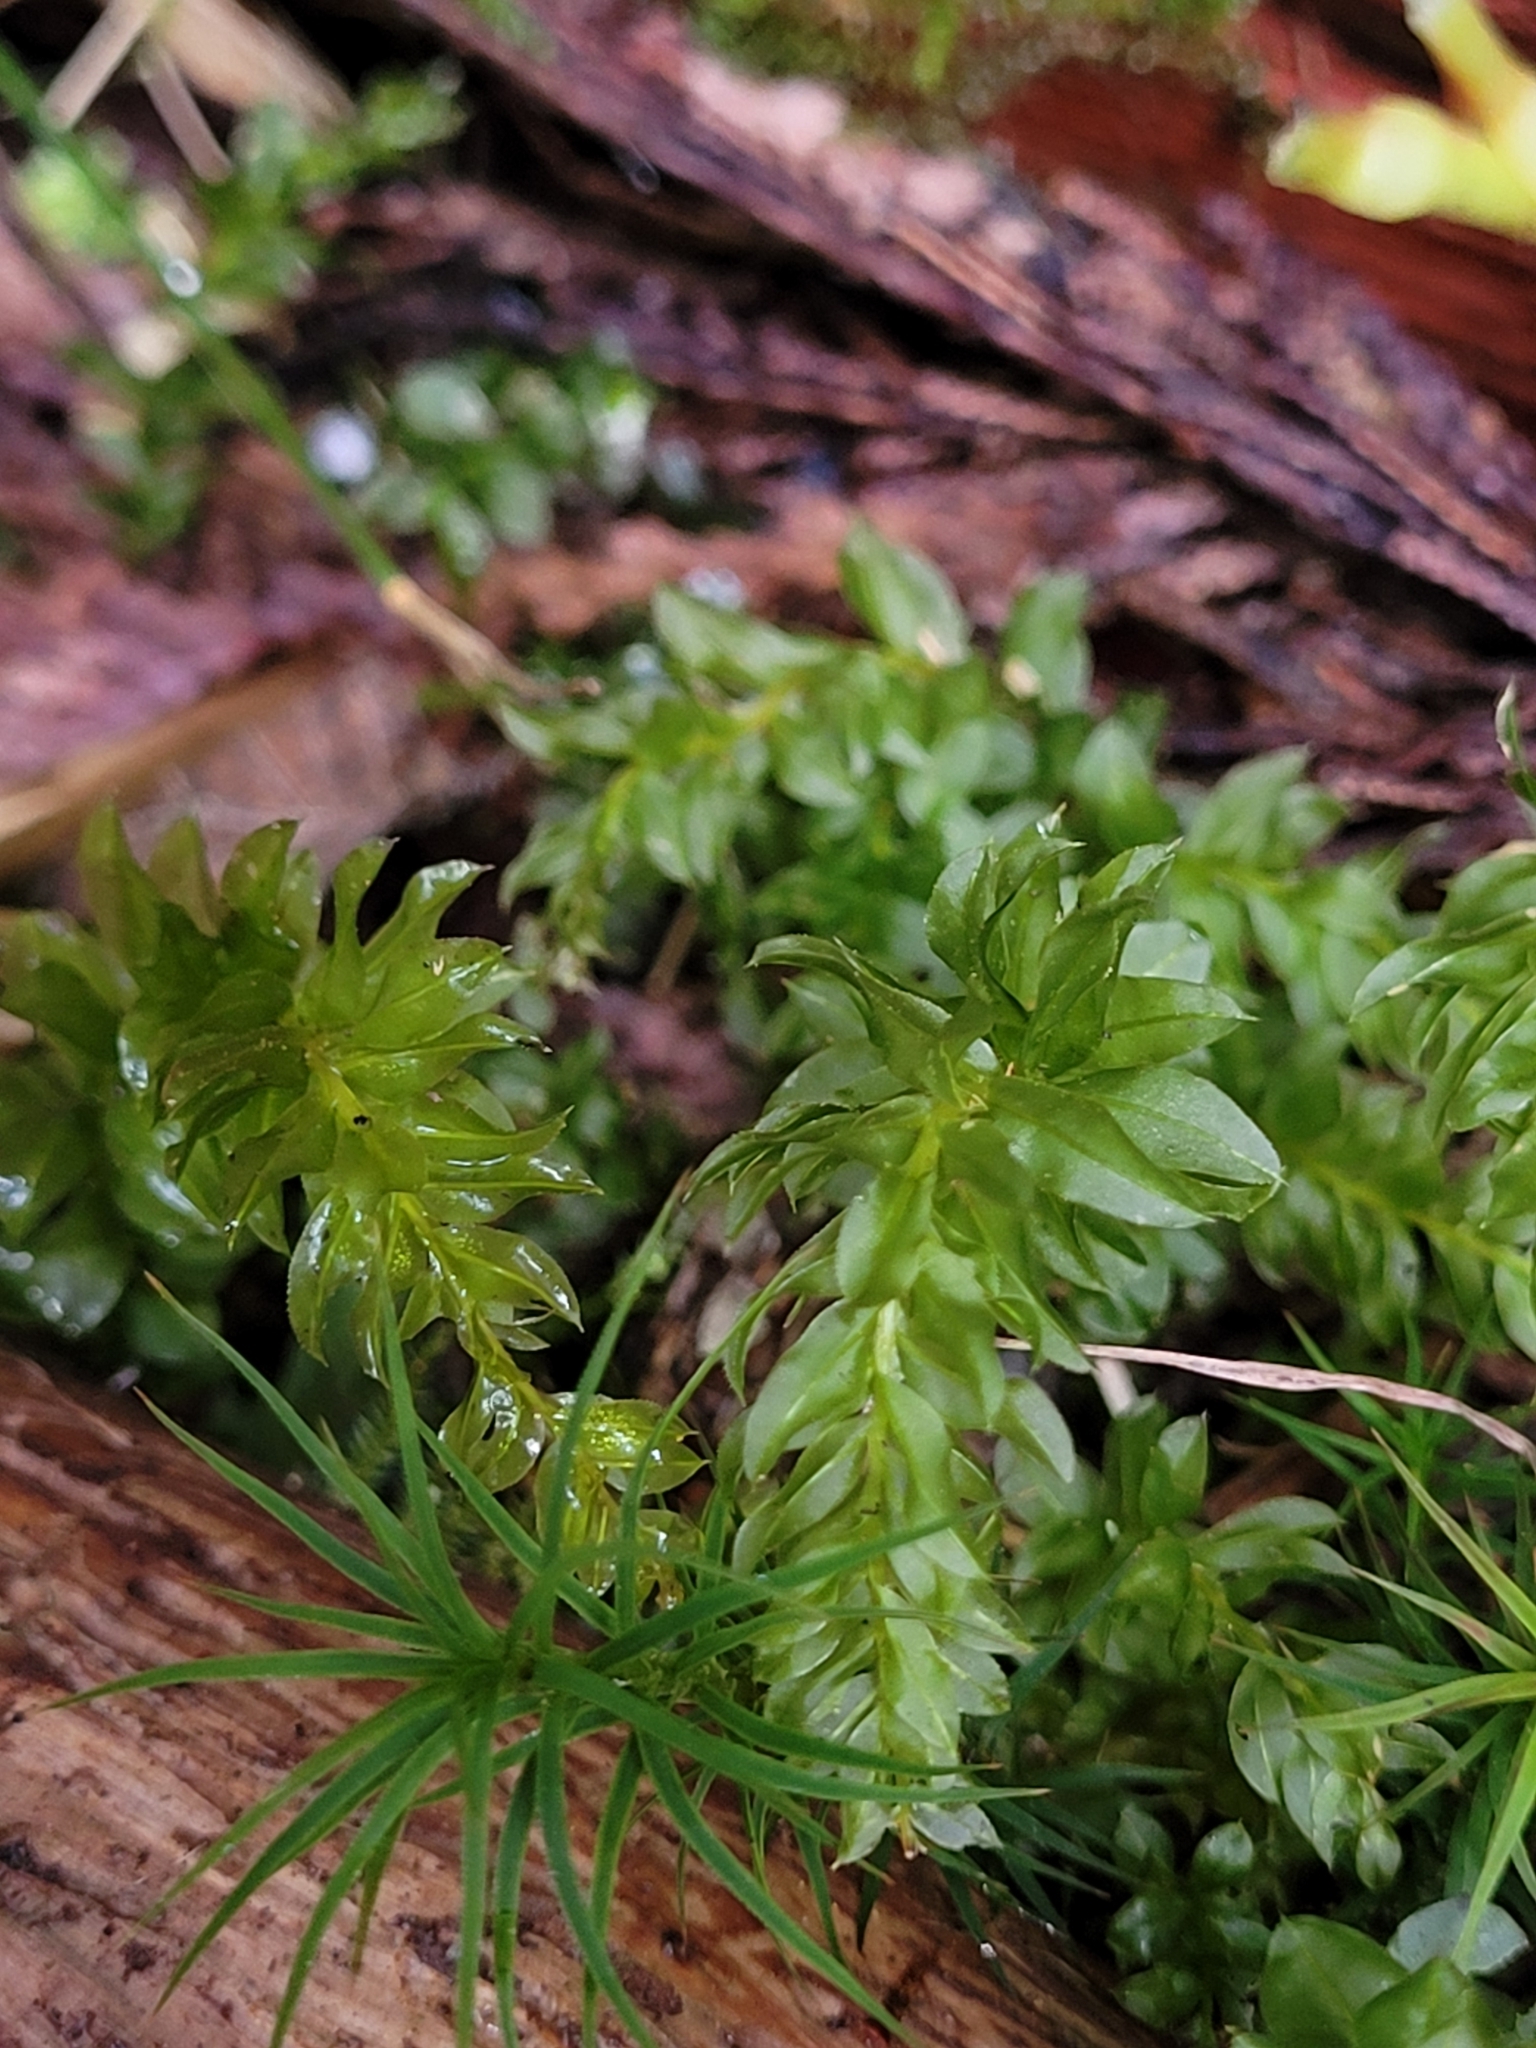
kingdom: Plantae
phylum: Bryophyta
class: Bryopsida
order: Bryales
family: Mniaceae
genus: Plagiomnium
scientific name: Plagiomnium insigne
